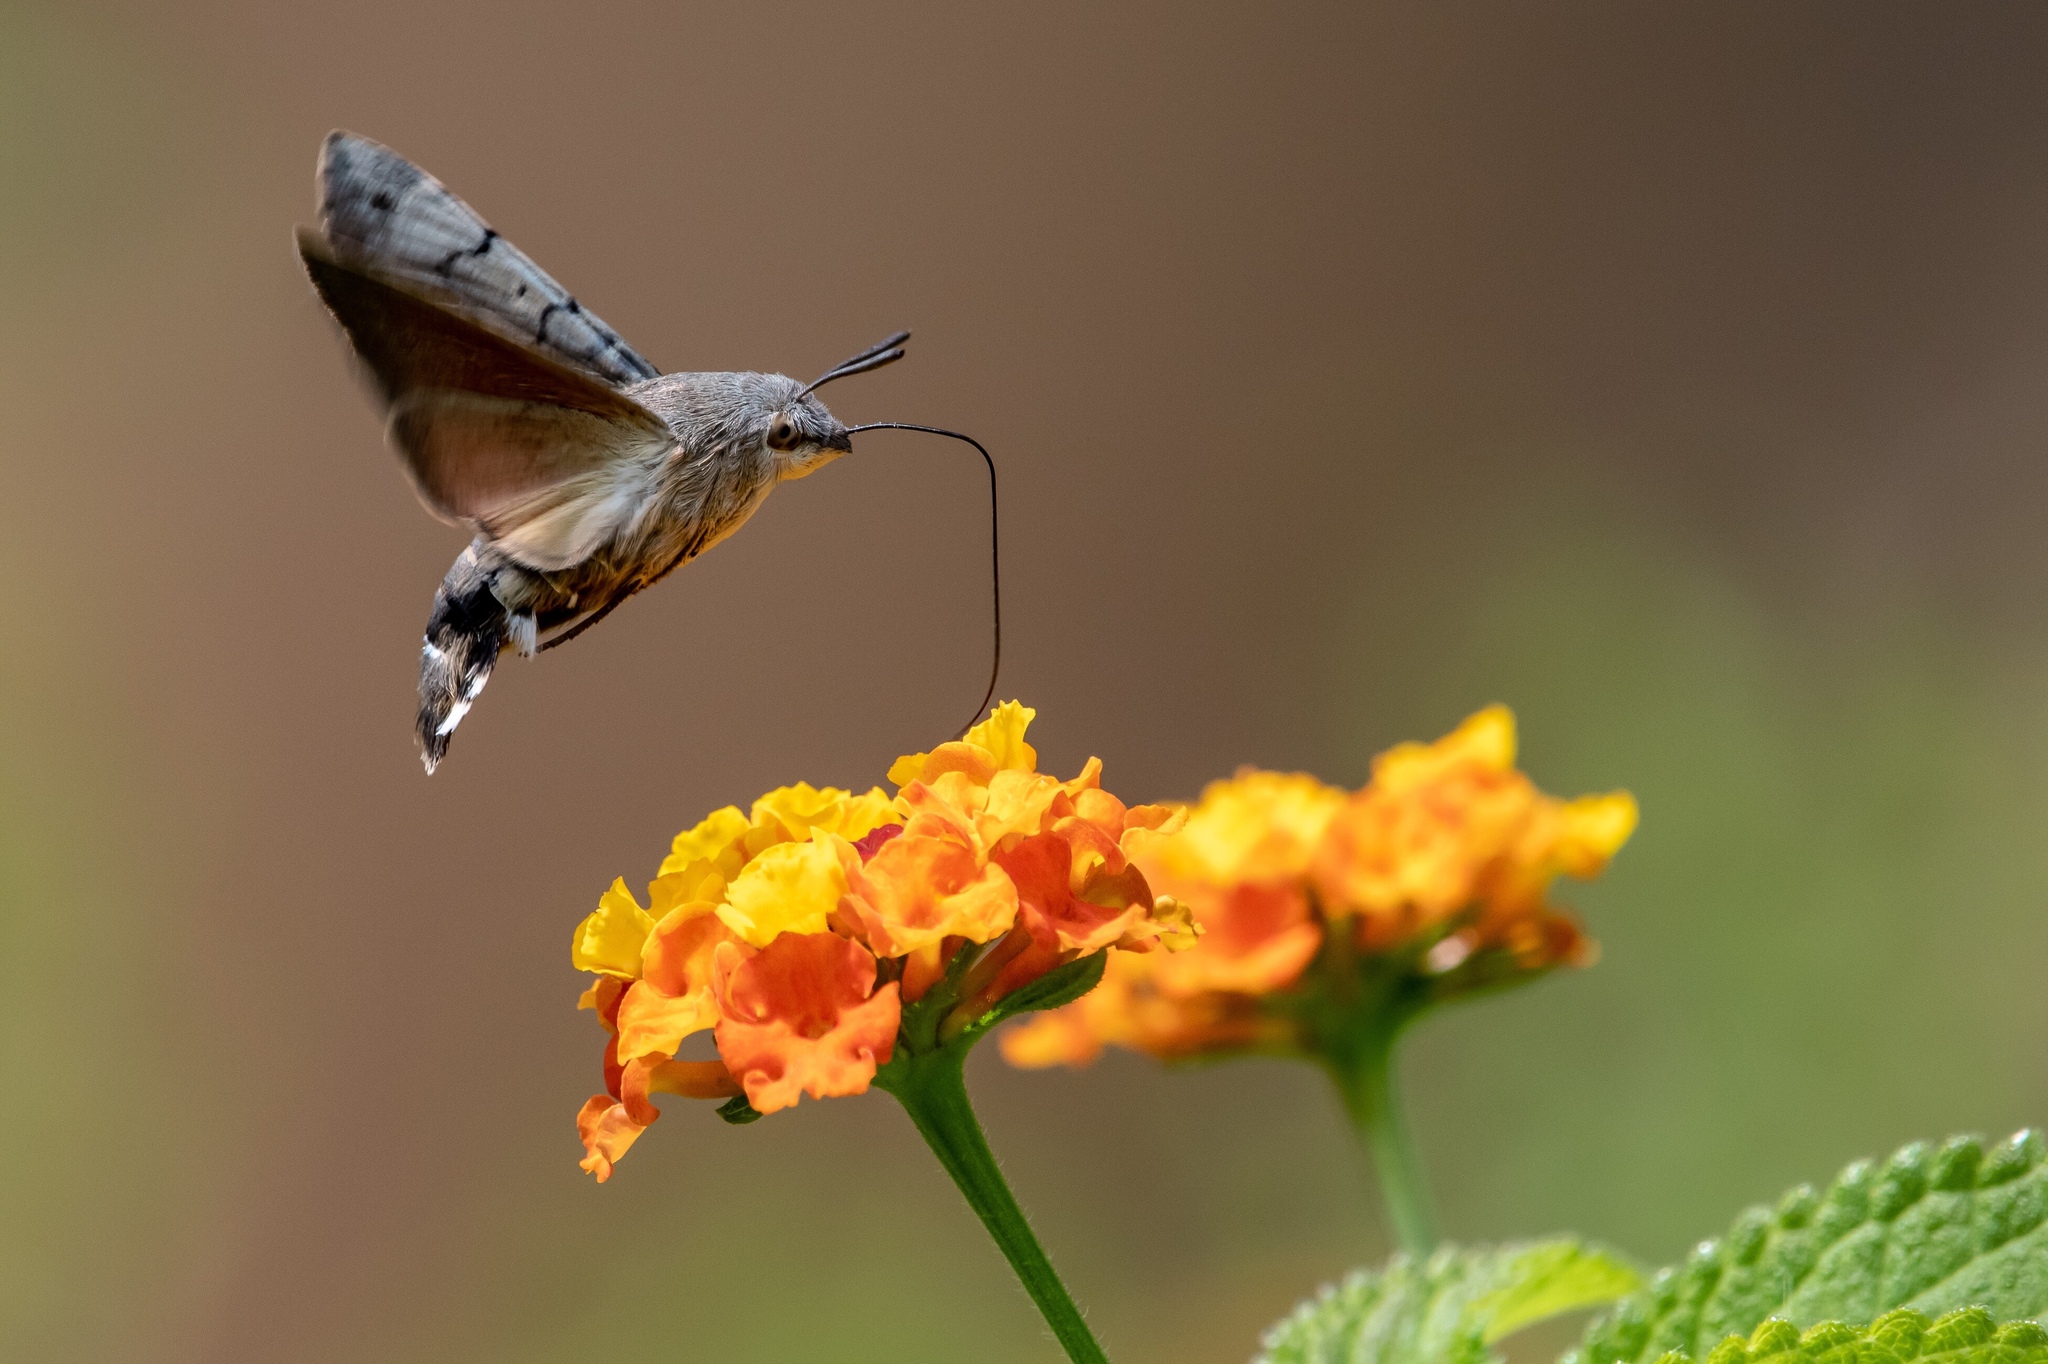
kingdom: Animalia
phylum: Arthropoda
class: Insecta
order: Lepidoptera
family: Sphingidae
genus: Macroglossum
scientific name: Macroglossum stellatarum
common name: Humming-bird hawk-moth
